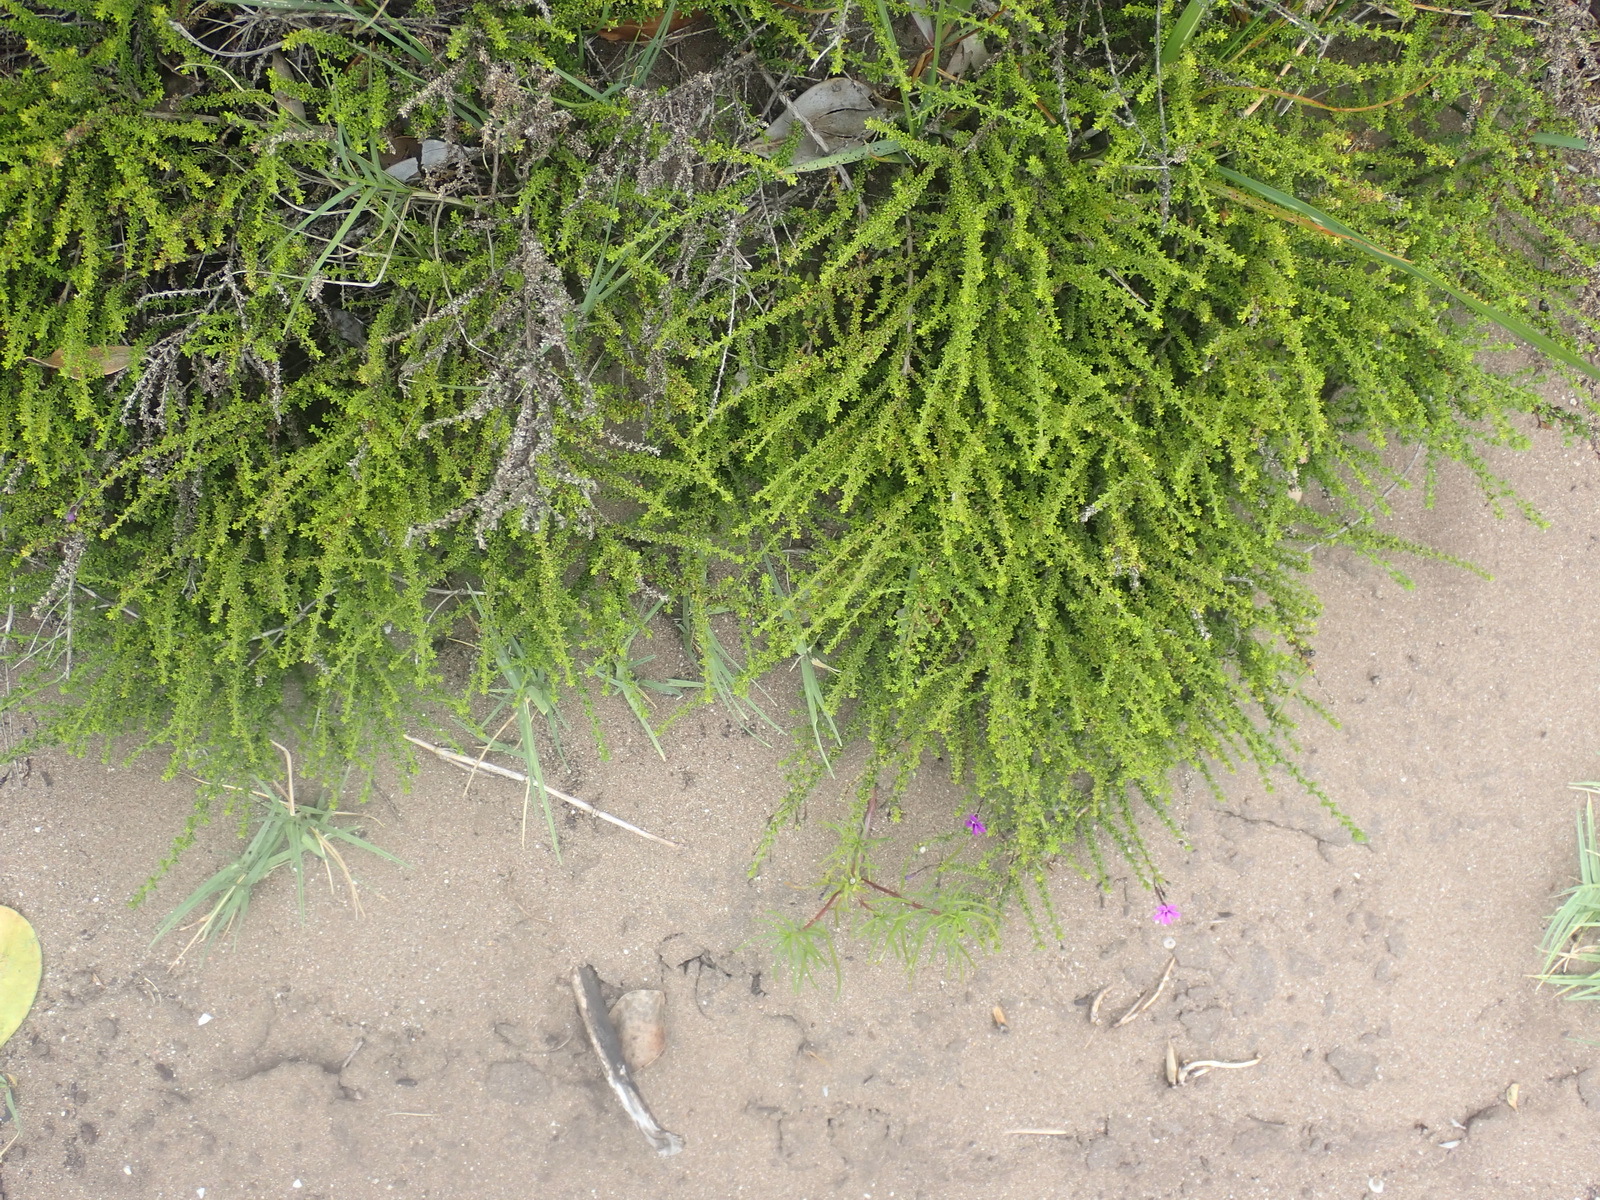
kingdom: Plantae
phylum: Tracheophyta
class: Magnoliopsida
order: Lamiales
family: Scrophulariaceae
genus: Jamesbrittenia
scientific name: Jamesbrittenia tenuifolia
